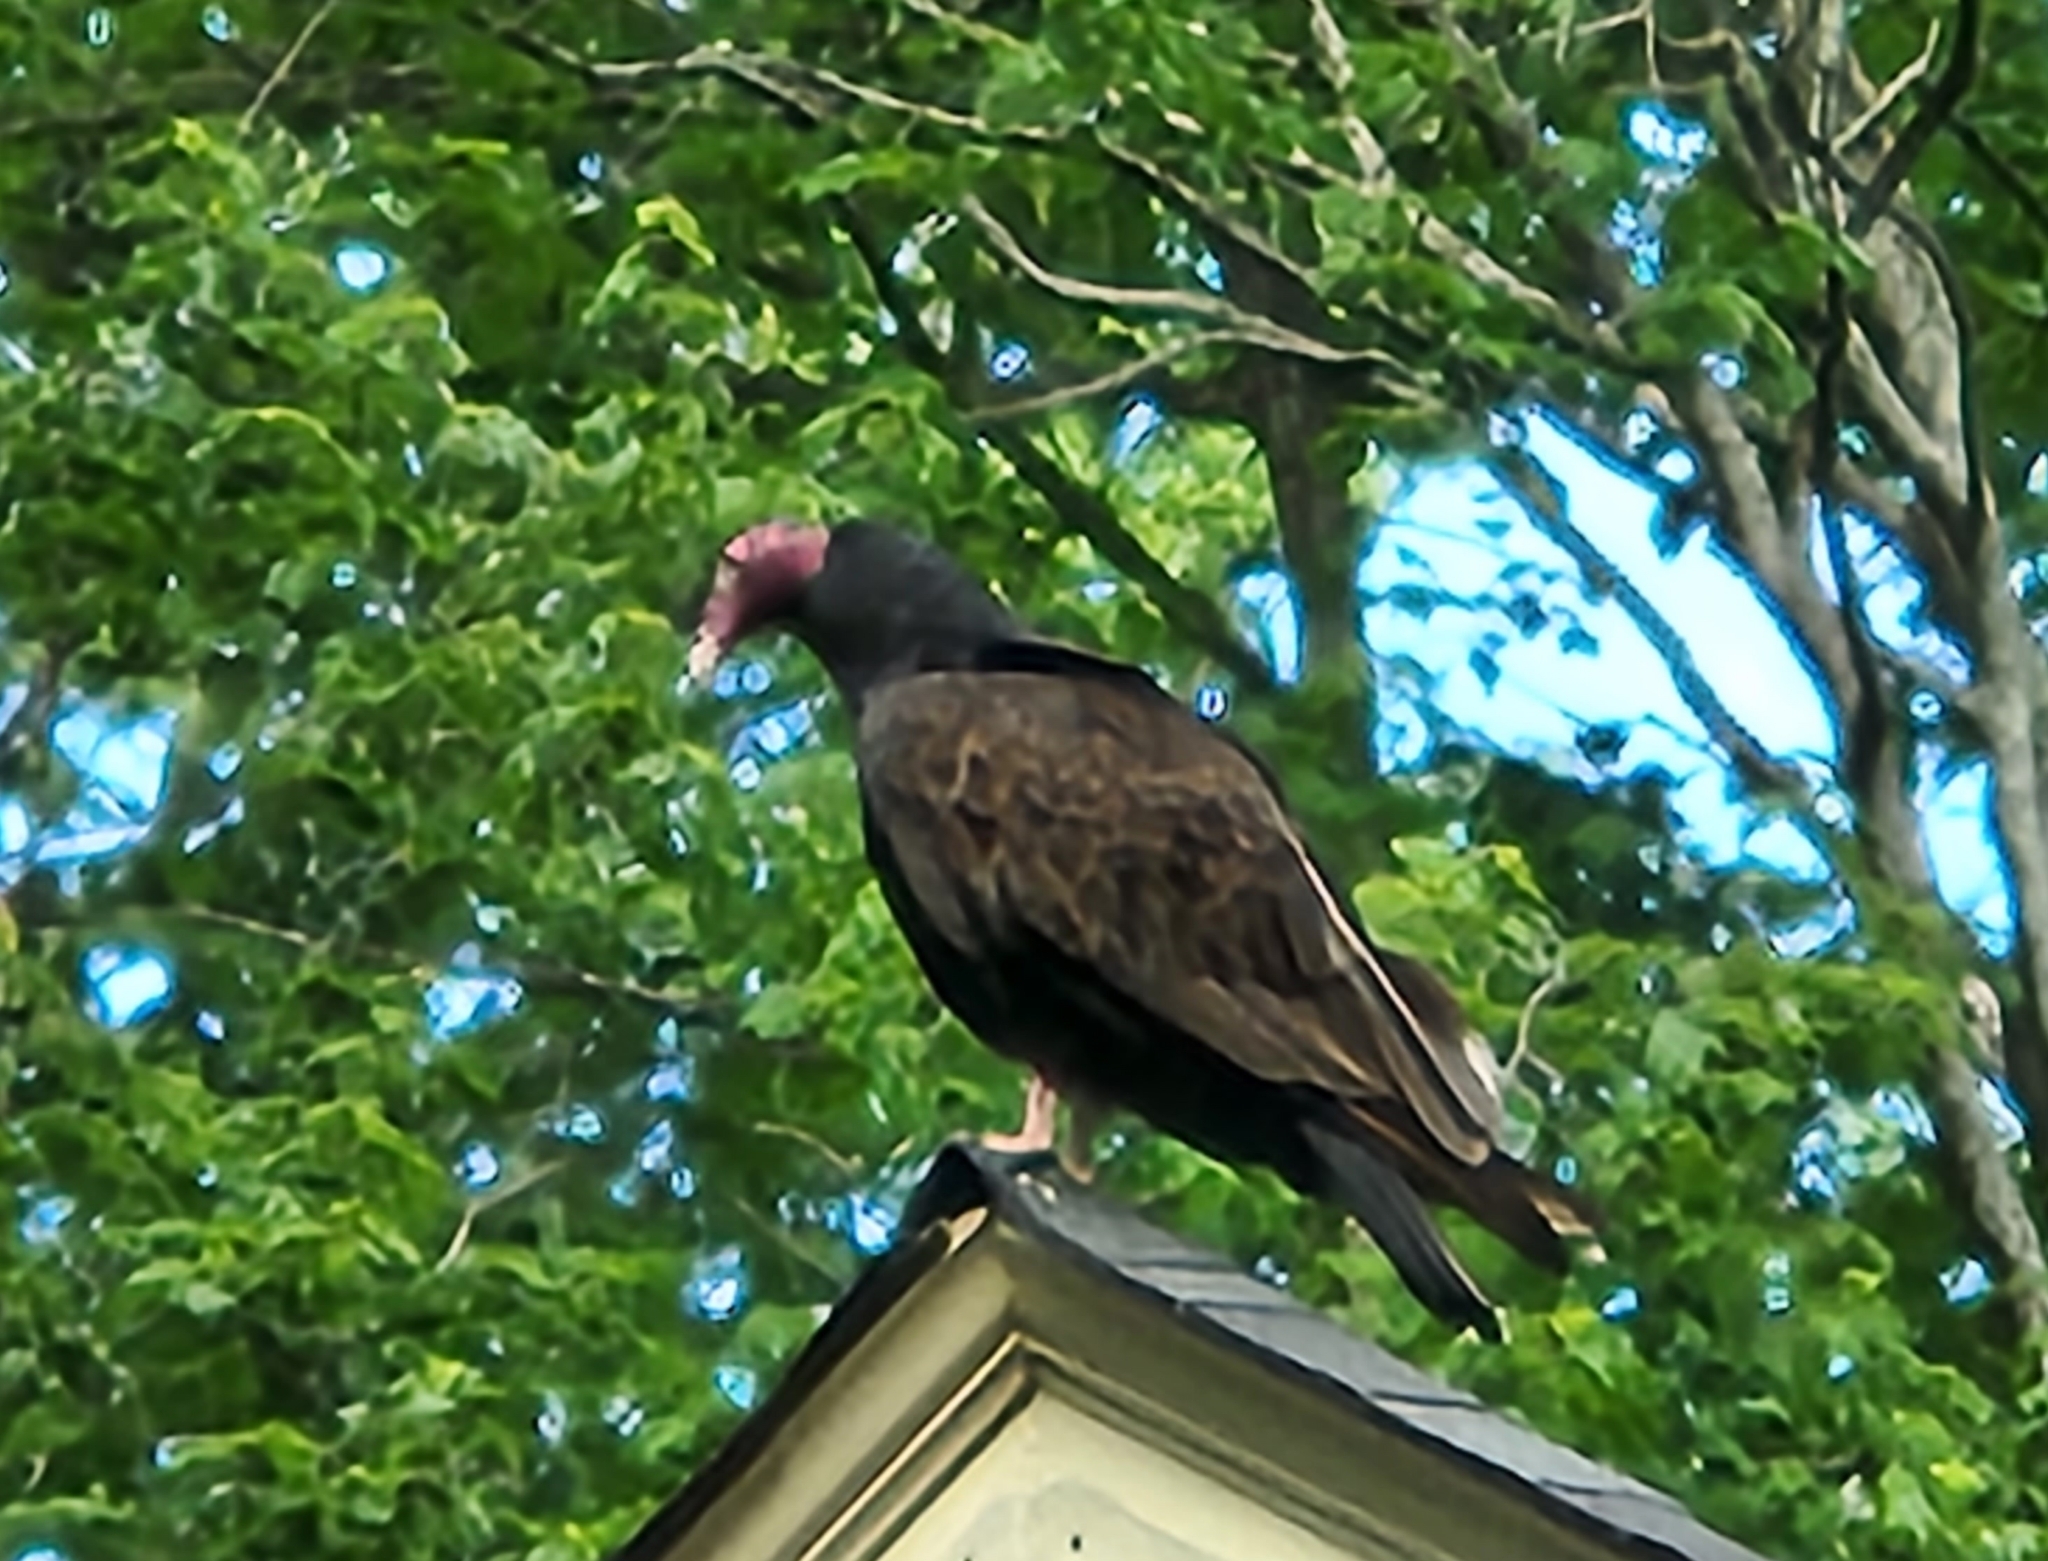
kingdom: Animalia
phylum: Chordata
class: Aves
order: Accipitriformes
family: Cathartidae
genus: Cathartes
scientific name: Cathartes aura
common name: Turkey vulture
